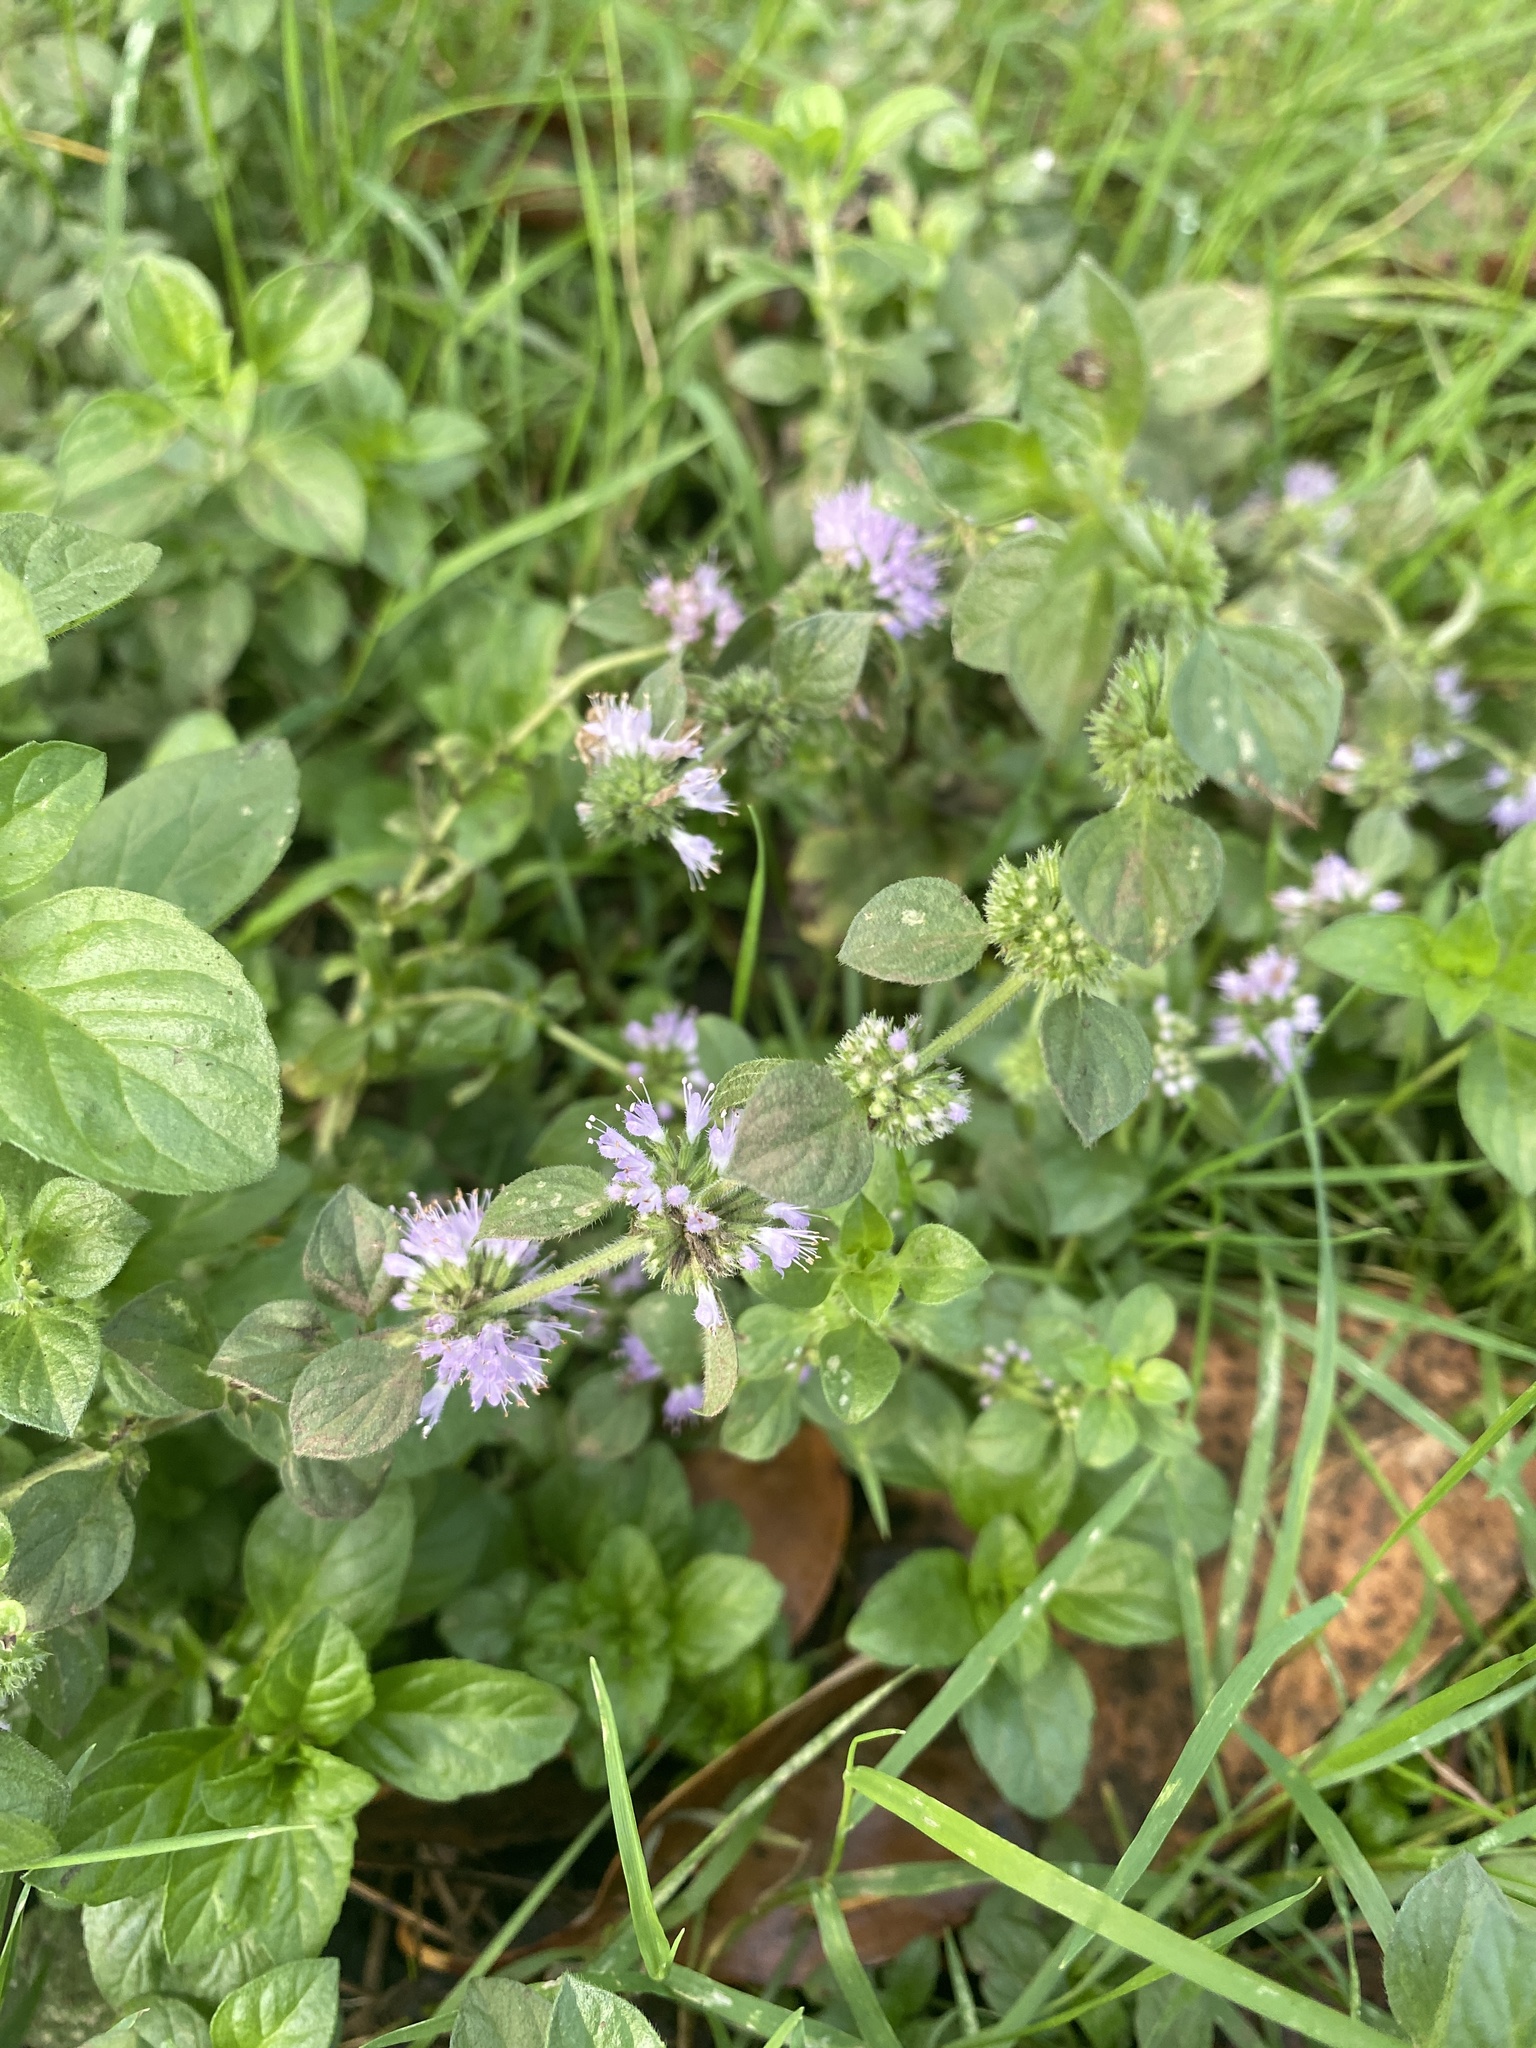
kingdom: Plantae
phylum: Tracheophyta
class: Magnoliopsida
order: Lamiales
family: Lamiaceae
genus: Mentha
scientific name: Mentha pulegium
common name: Pennyroyal
